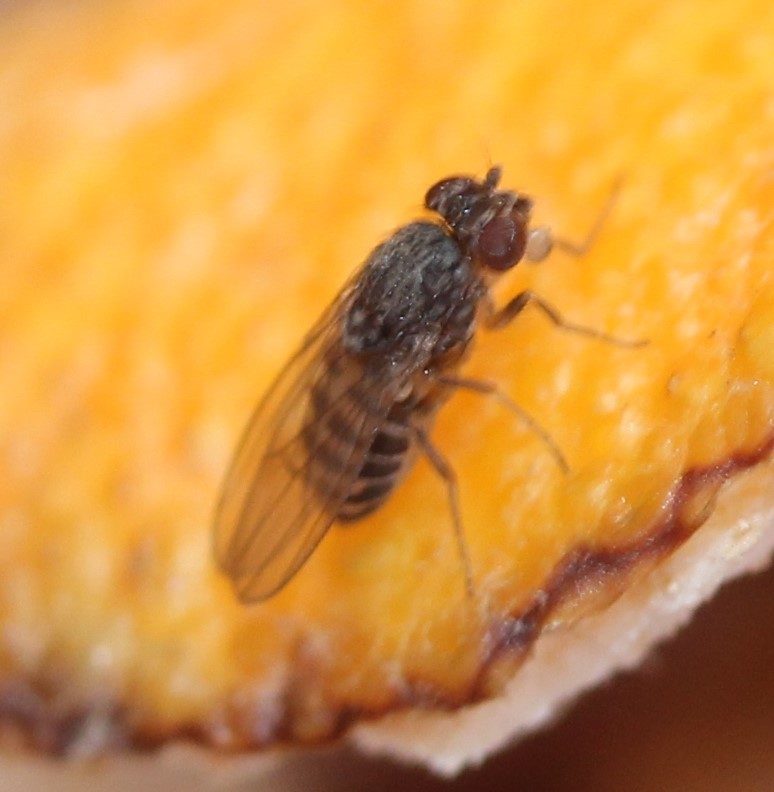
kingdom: Animalia
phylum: Arthropoda
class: Insecta
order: Diptera
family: Drosophilidae
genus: Drosophila
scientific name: Drosophila hydei
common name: Pomace fly
